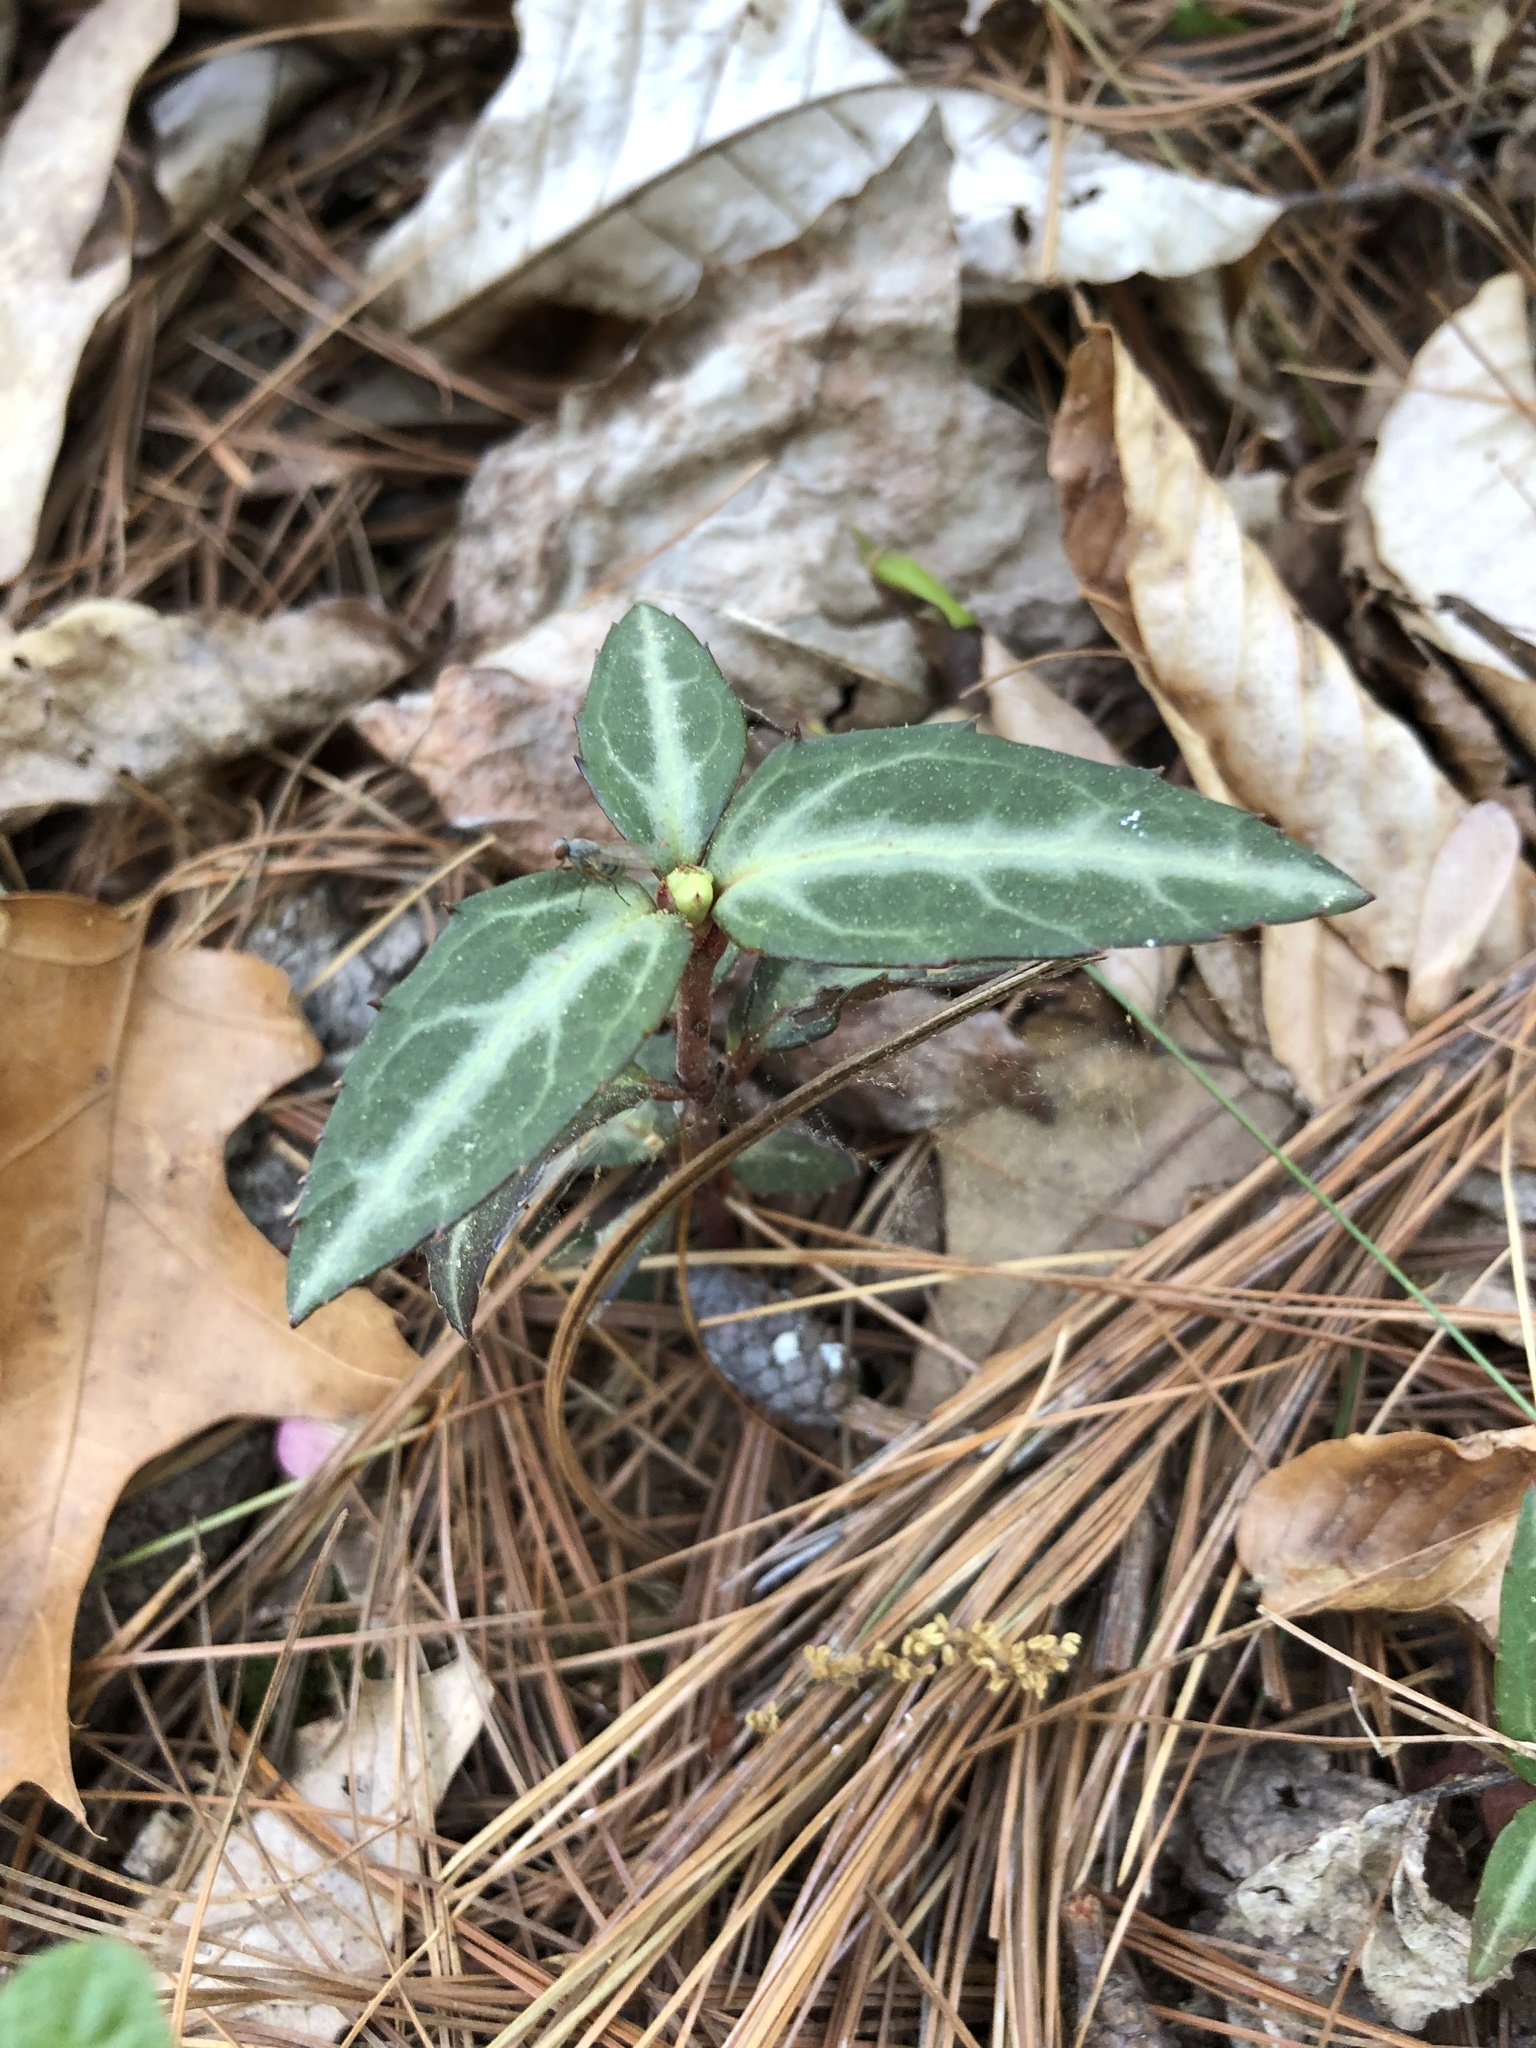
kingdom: Plantae
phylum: Tracheophyta
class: Magnoliopsida
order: Ericales
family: Ericaceae
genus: Chimaphila
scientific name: Chimaphila maculata
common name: Spotted pipsissewa
